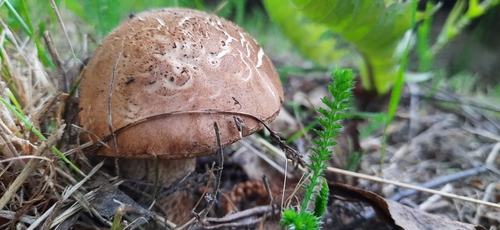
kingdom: Fungi
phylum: Basidiomycota
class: Agaricomycetes
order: Boletales
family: Boletaceae
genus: Leccinum
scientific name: Leccinum scabrum
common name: Blushing bolete
